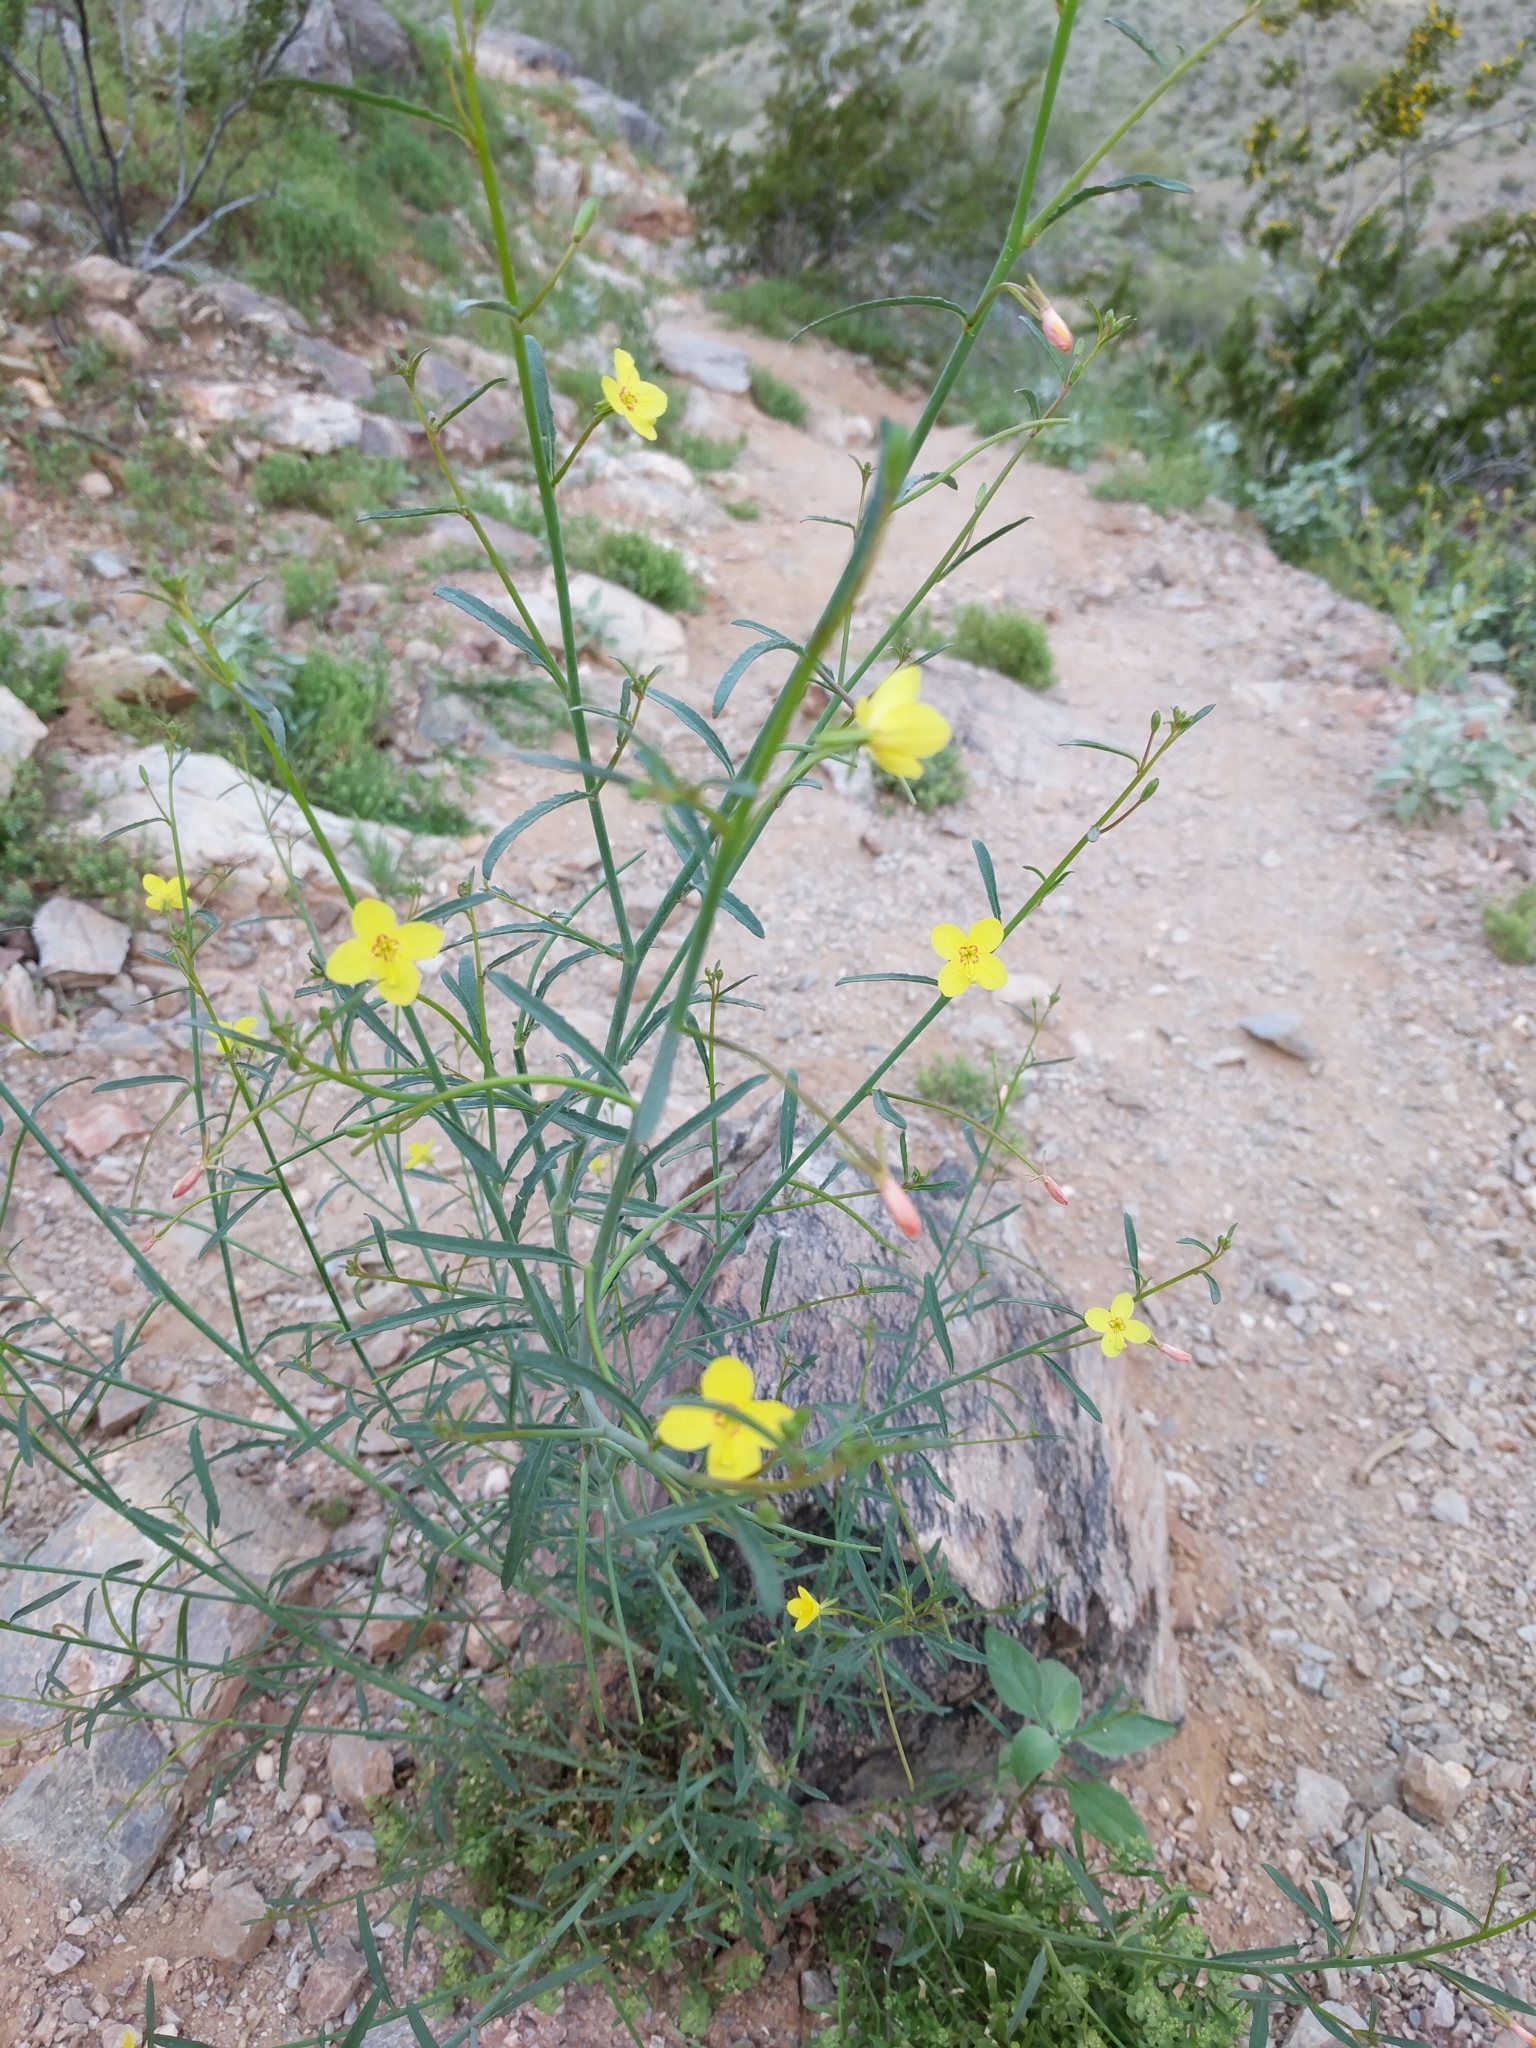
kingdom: Plantae
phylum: Tracheophyta
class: Magnoliopsida
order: Myrtales
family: Onagraceae
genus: Eulobus
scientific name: Eulobus californicus
